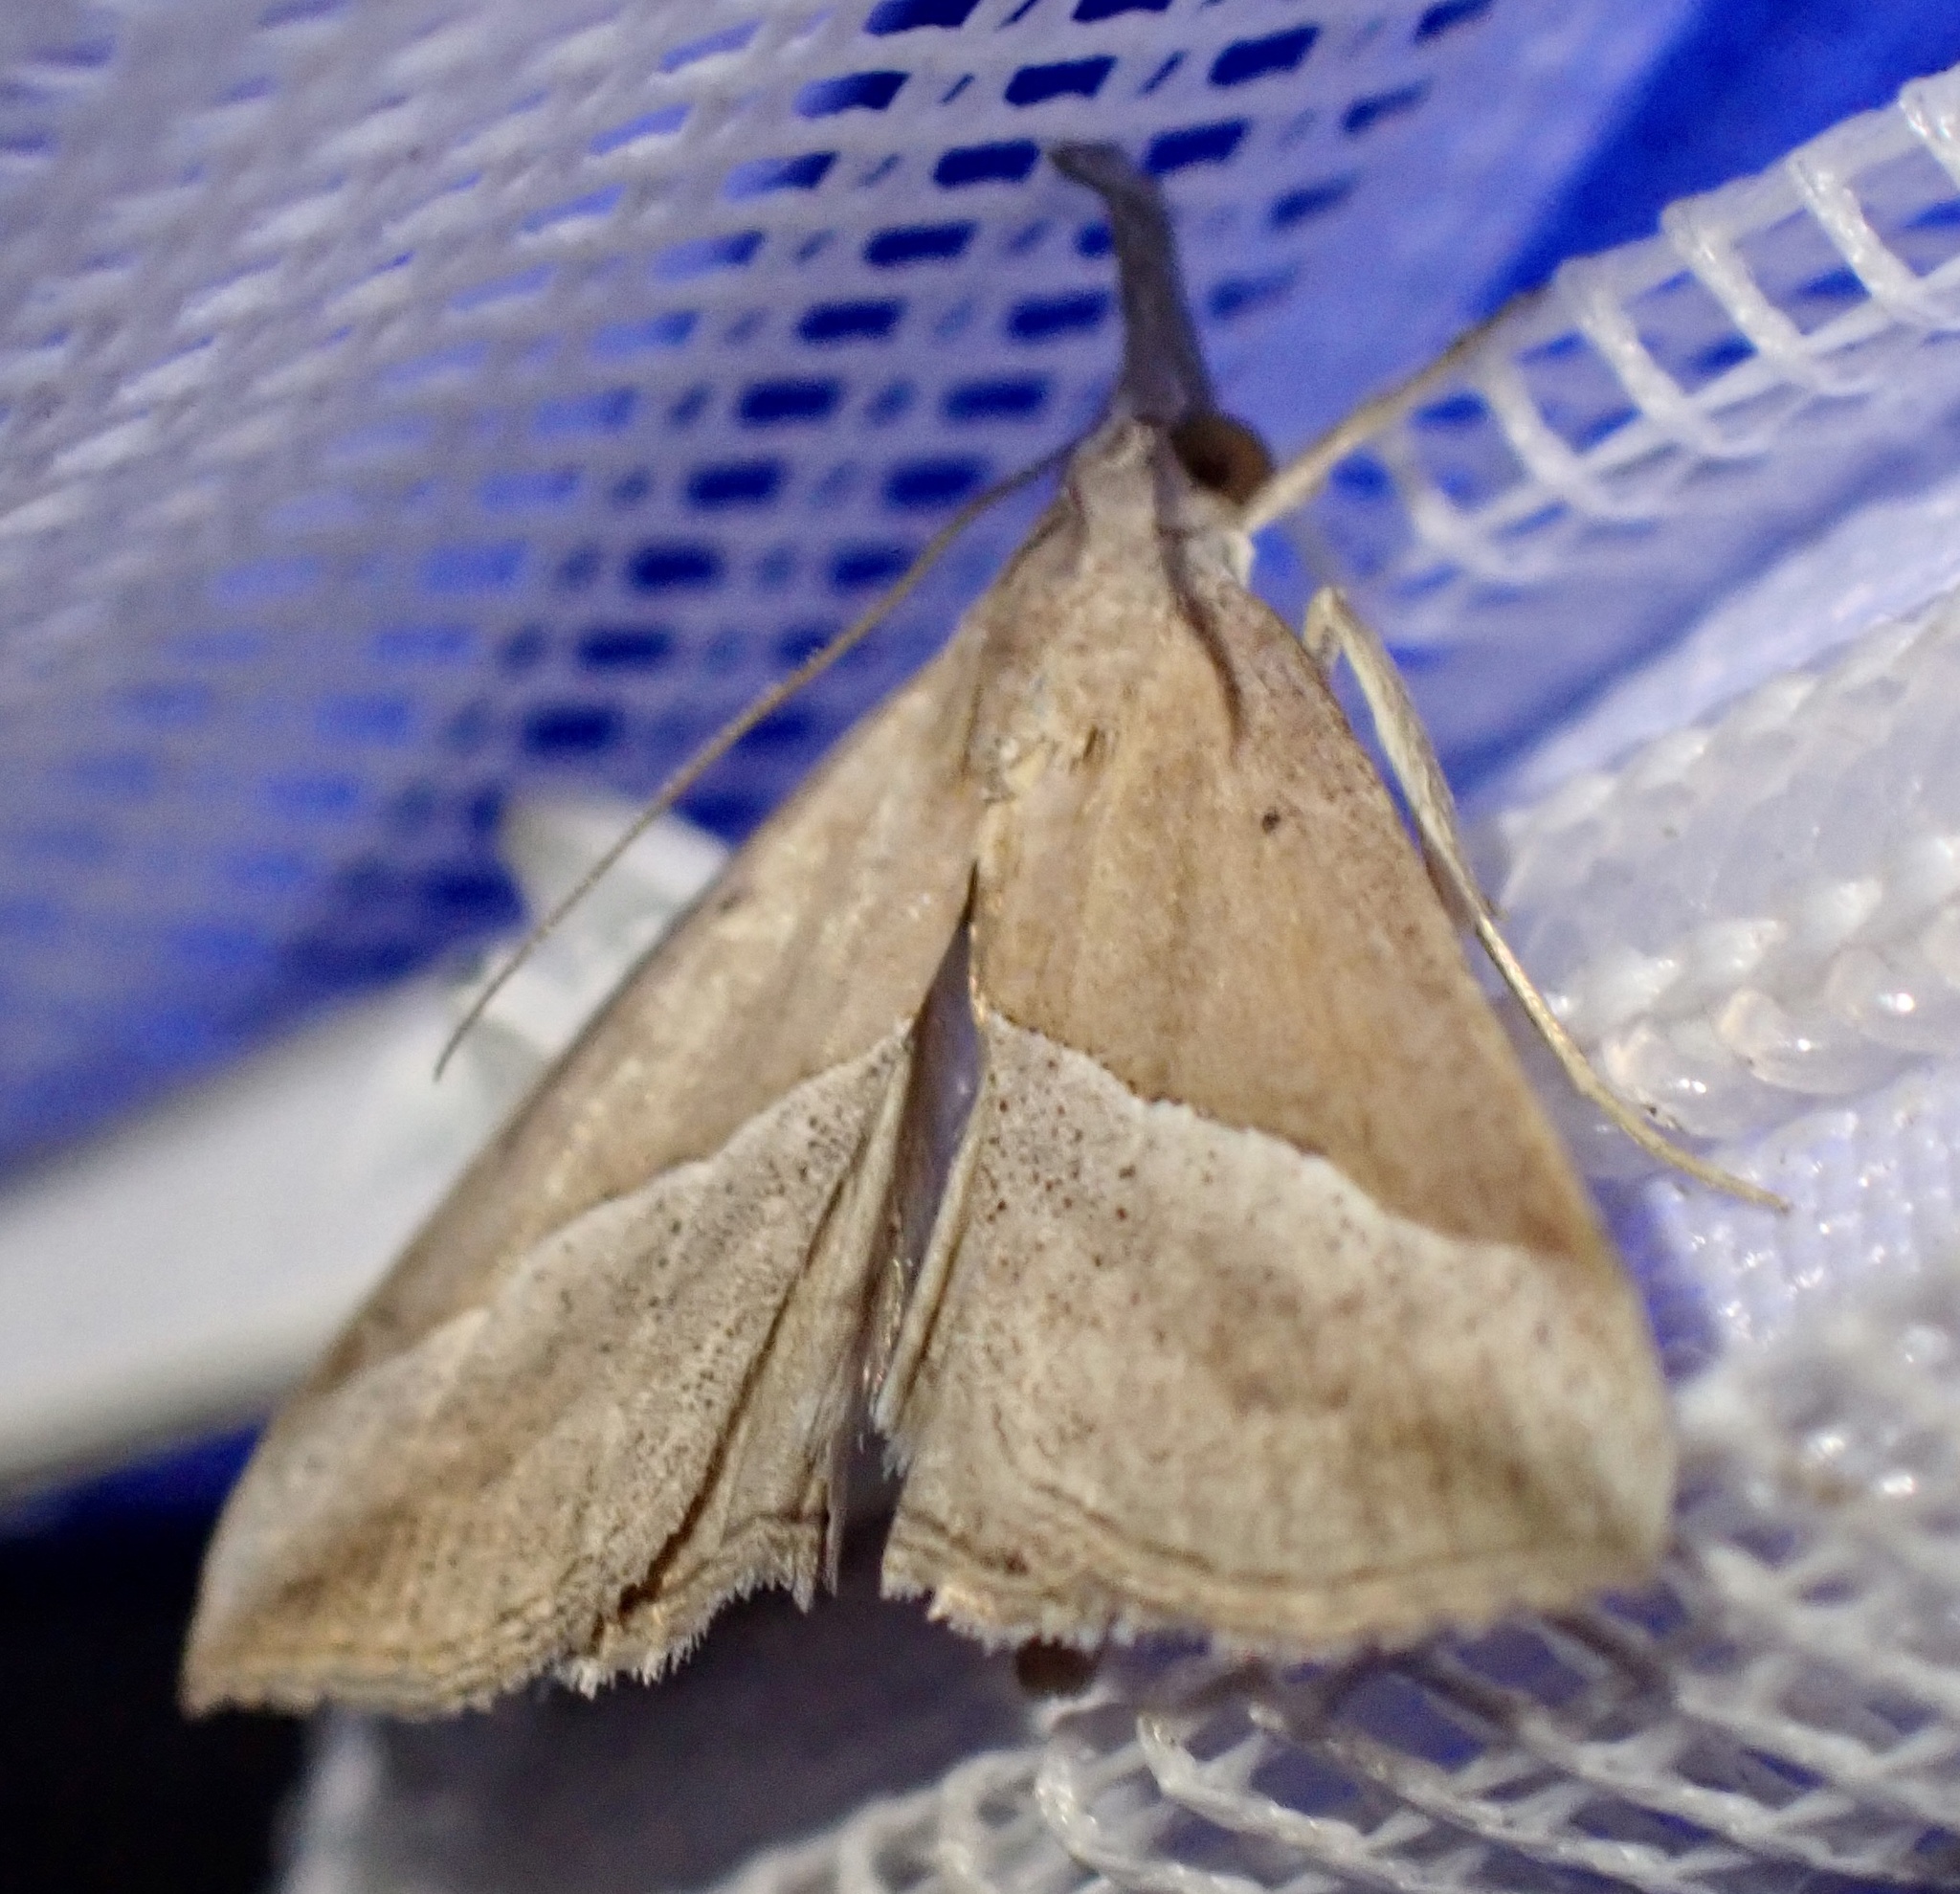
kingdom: Animalia
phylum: Arthropoda
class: Insecta
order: Lepidoptera
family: Erebidae
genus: Hypena
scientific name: Hypena lividalis
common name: Chevron snout
